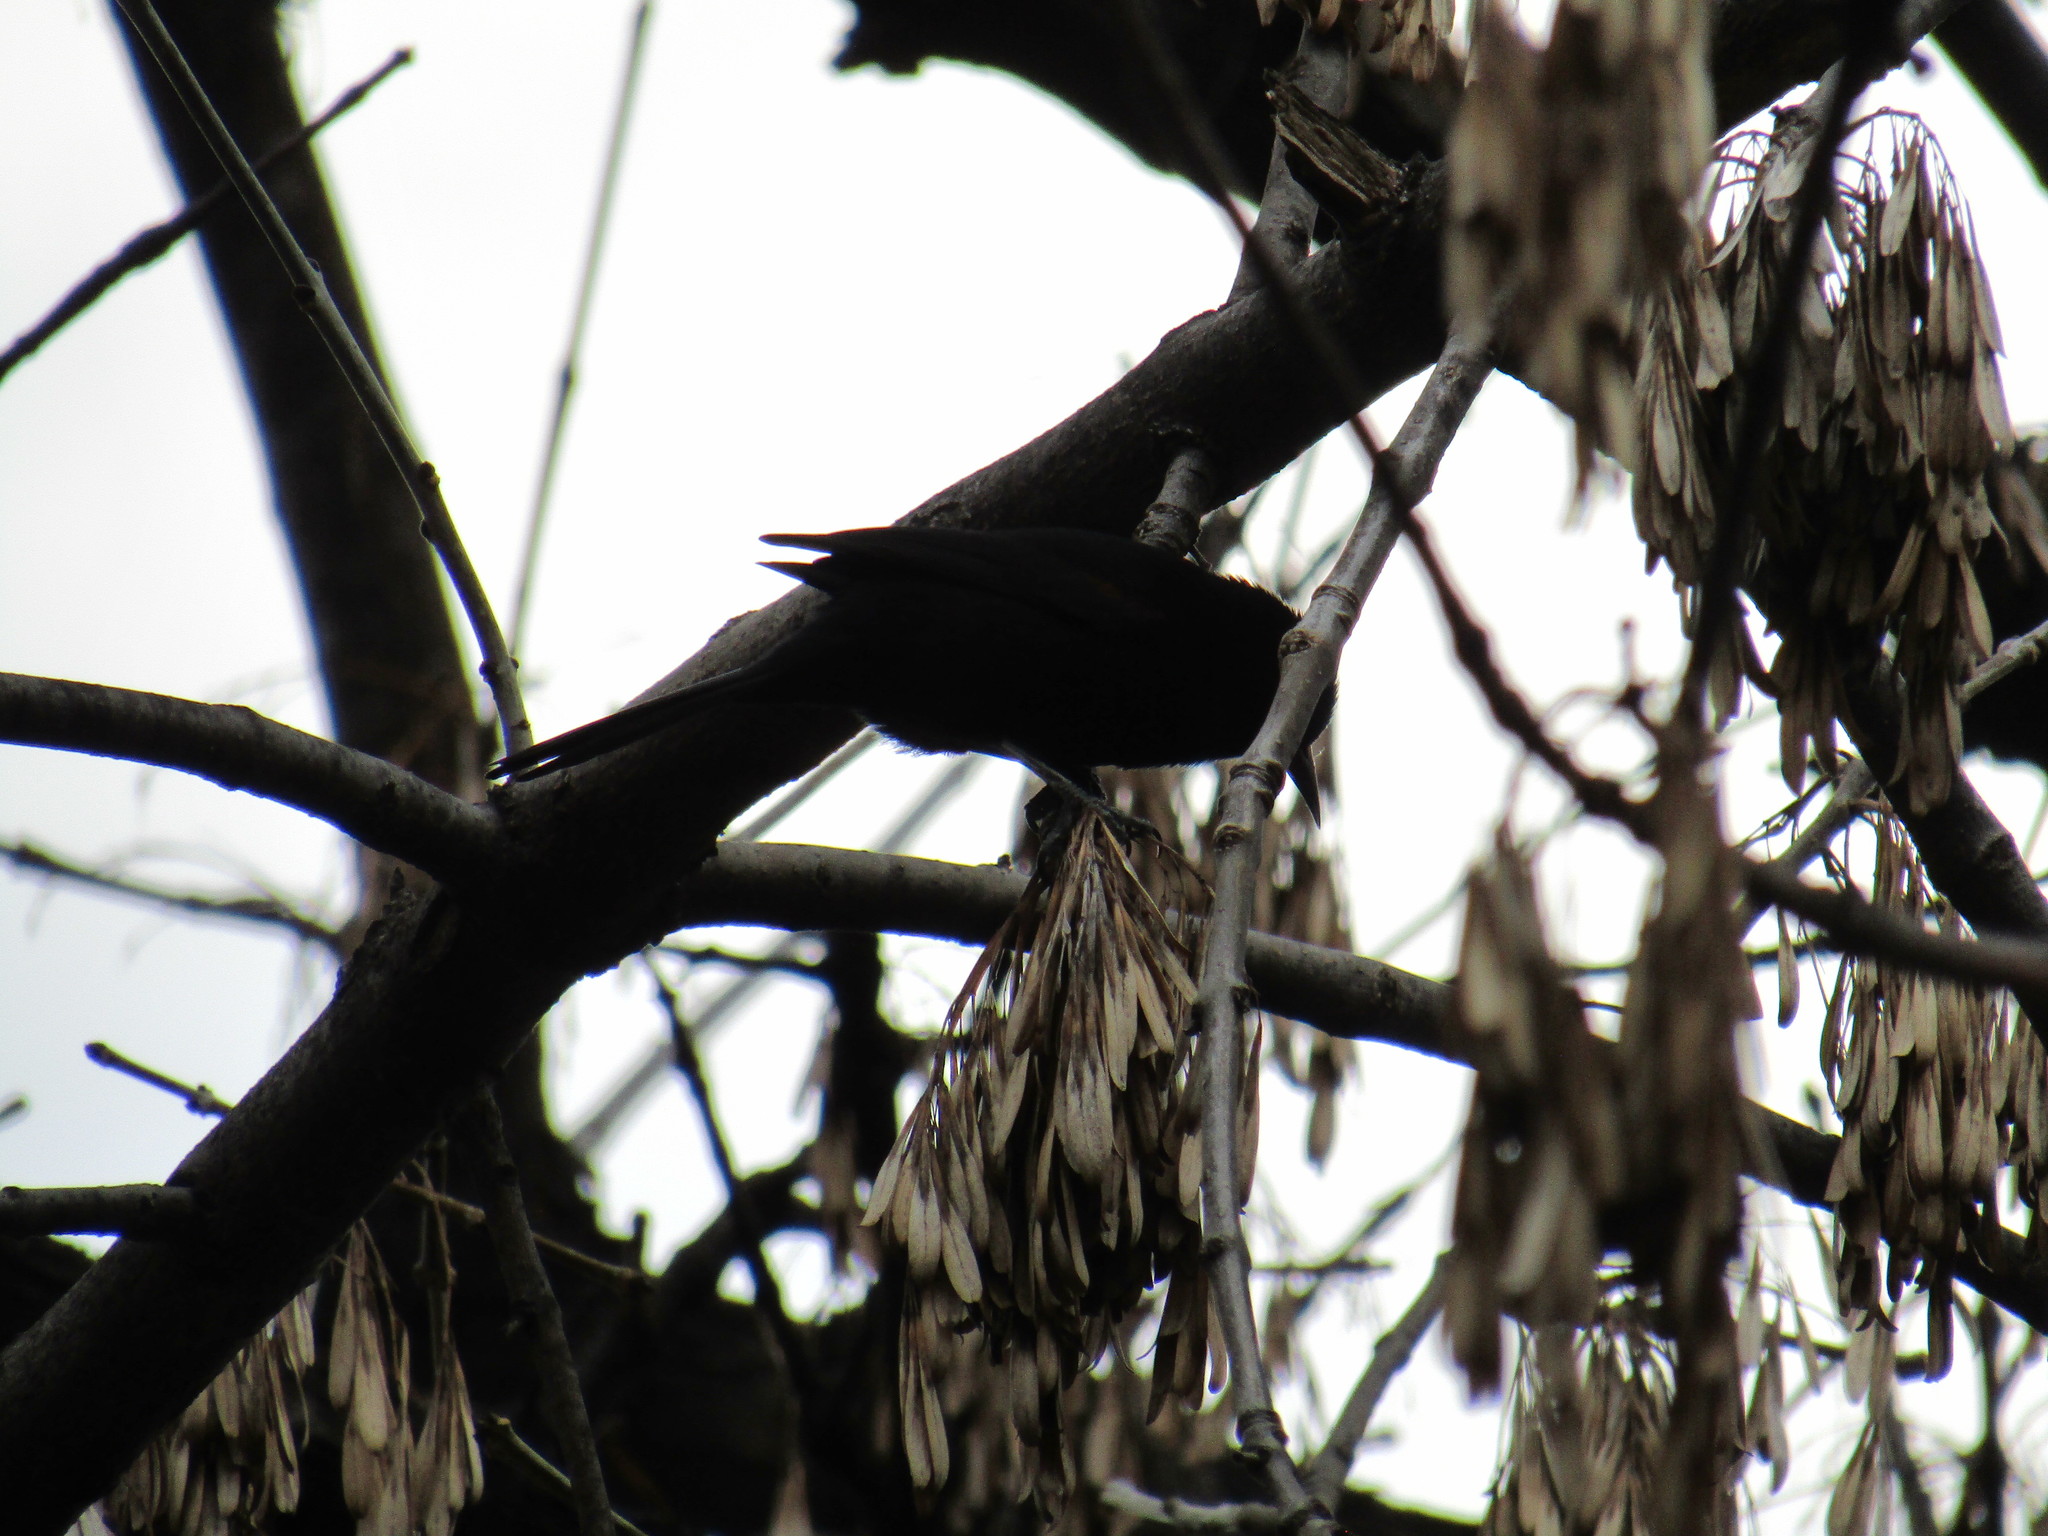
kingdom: Animalia
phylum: Chordata
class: Aves
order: Passeriformes
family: Icteridae
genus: Icterus
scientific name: Icterus cayanensis
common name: Epaulet oriole
